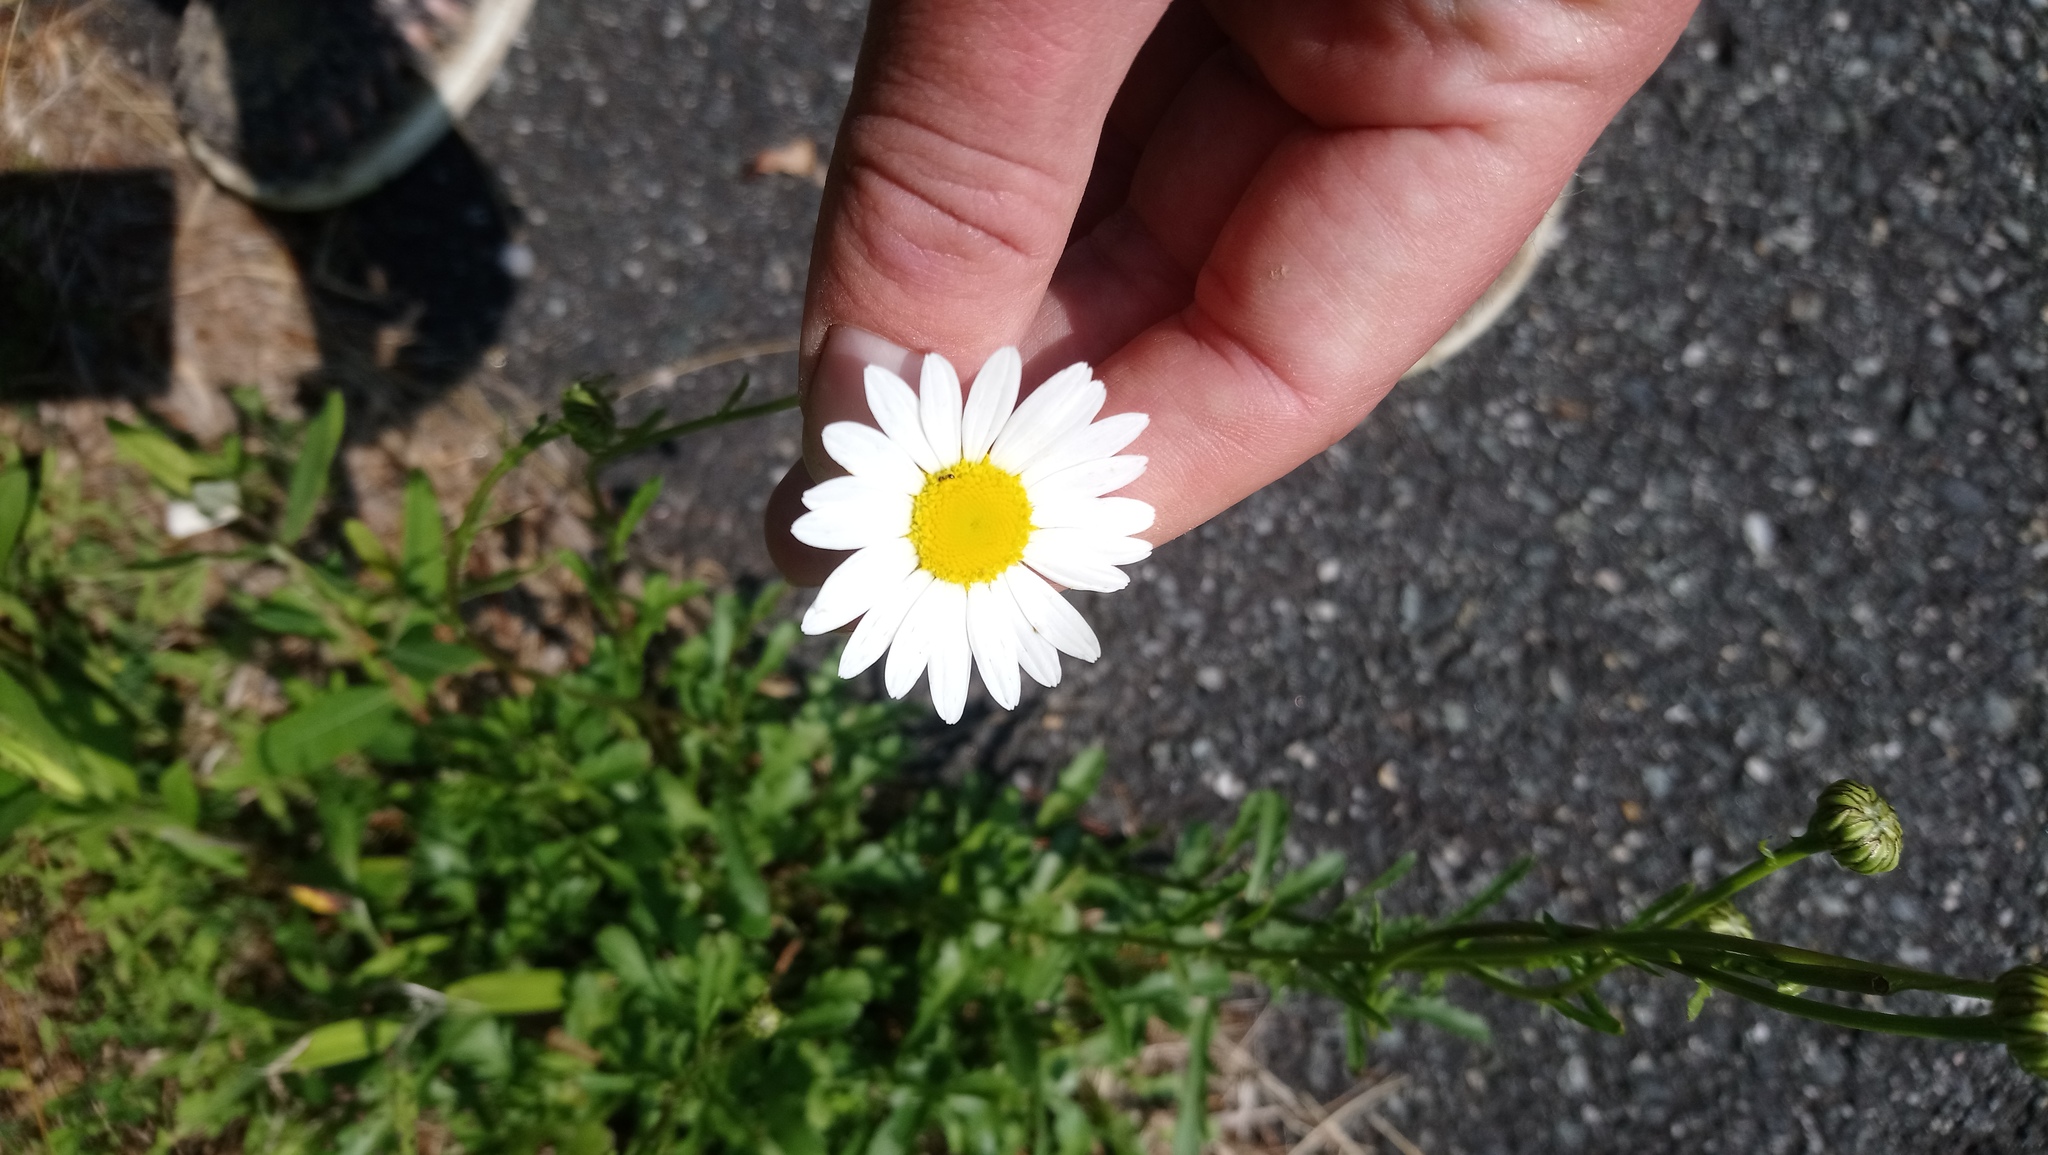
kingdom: Plantae
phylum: Tracheophyta
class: Magnoliopsida
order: Asterales
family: Asteraceae
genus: Leucanthemum
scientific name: Leucanthemum vulgare
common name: Oxeye daisy
